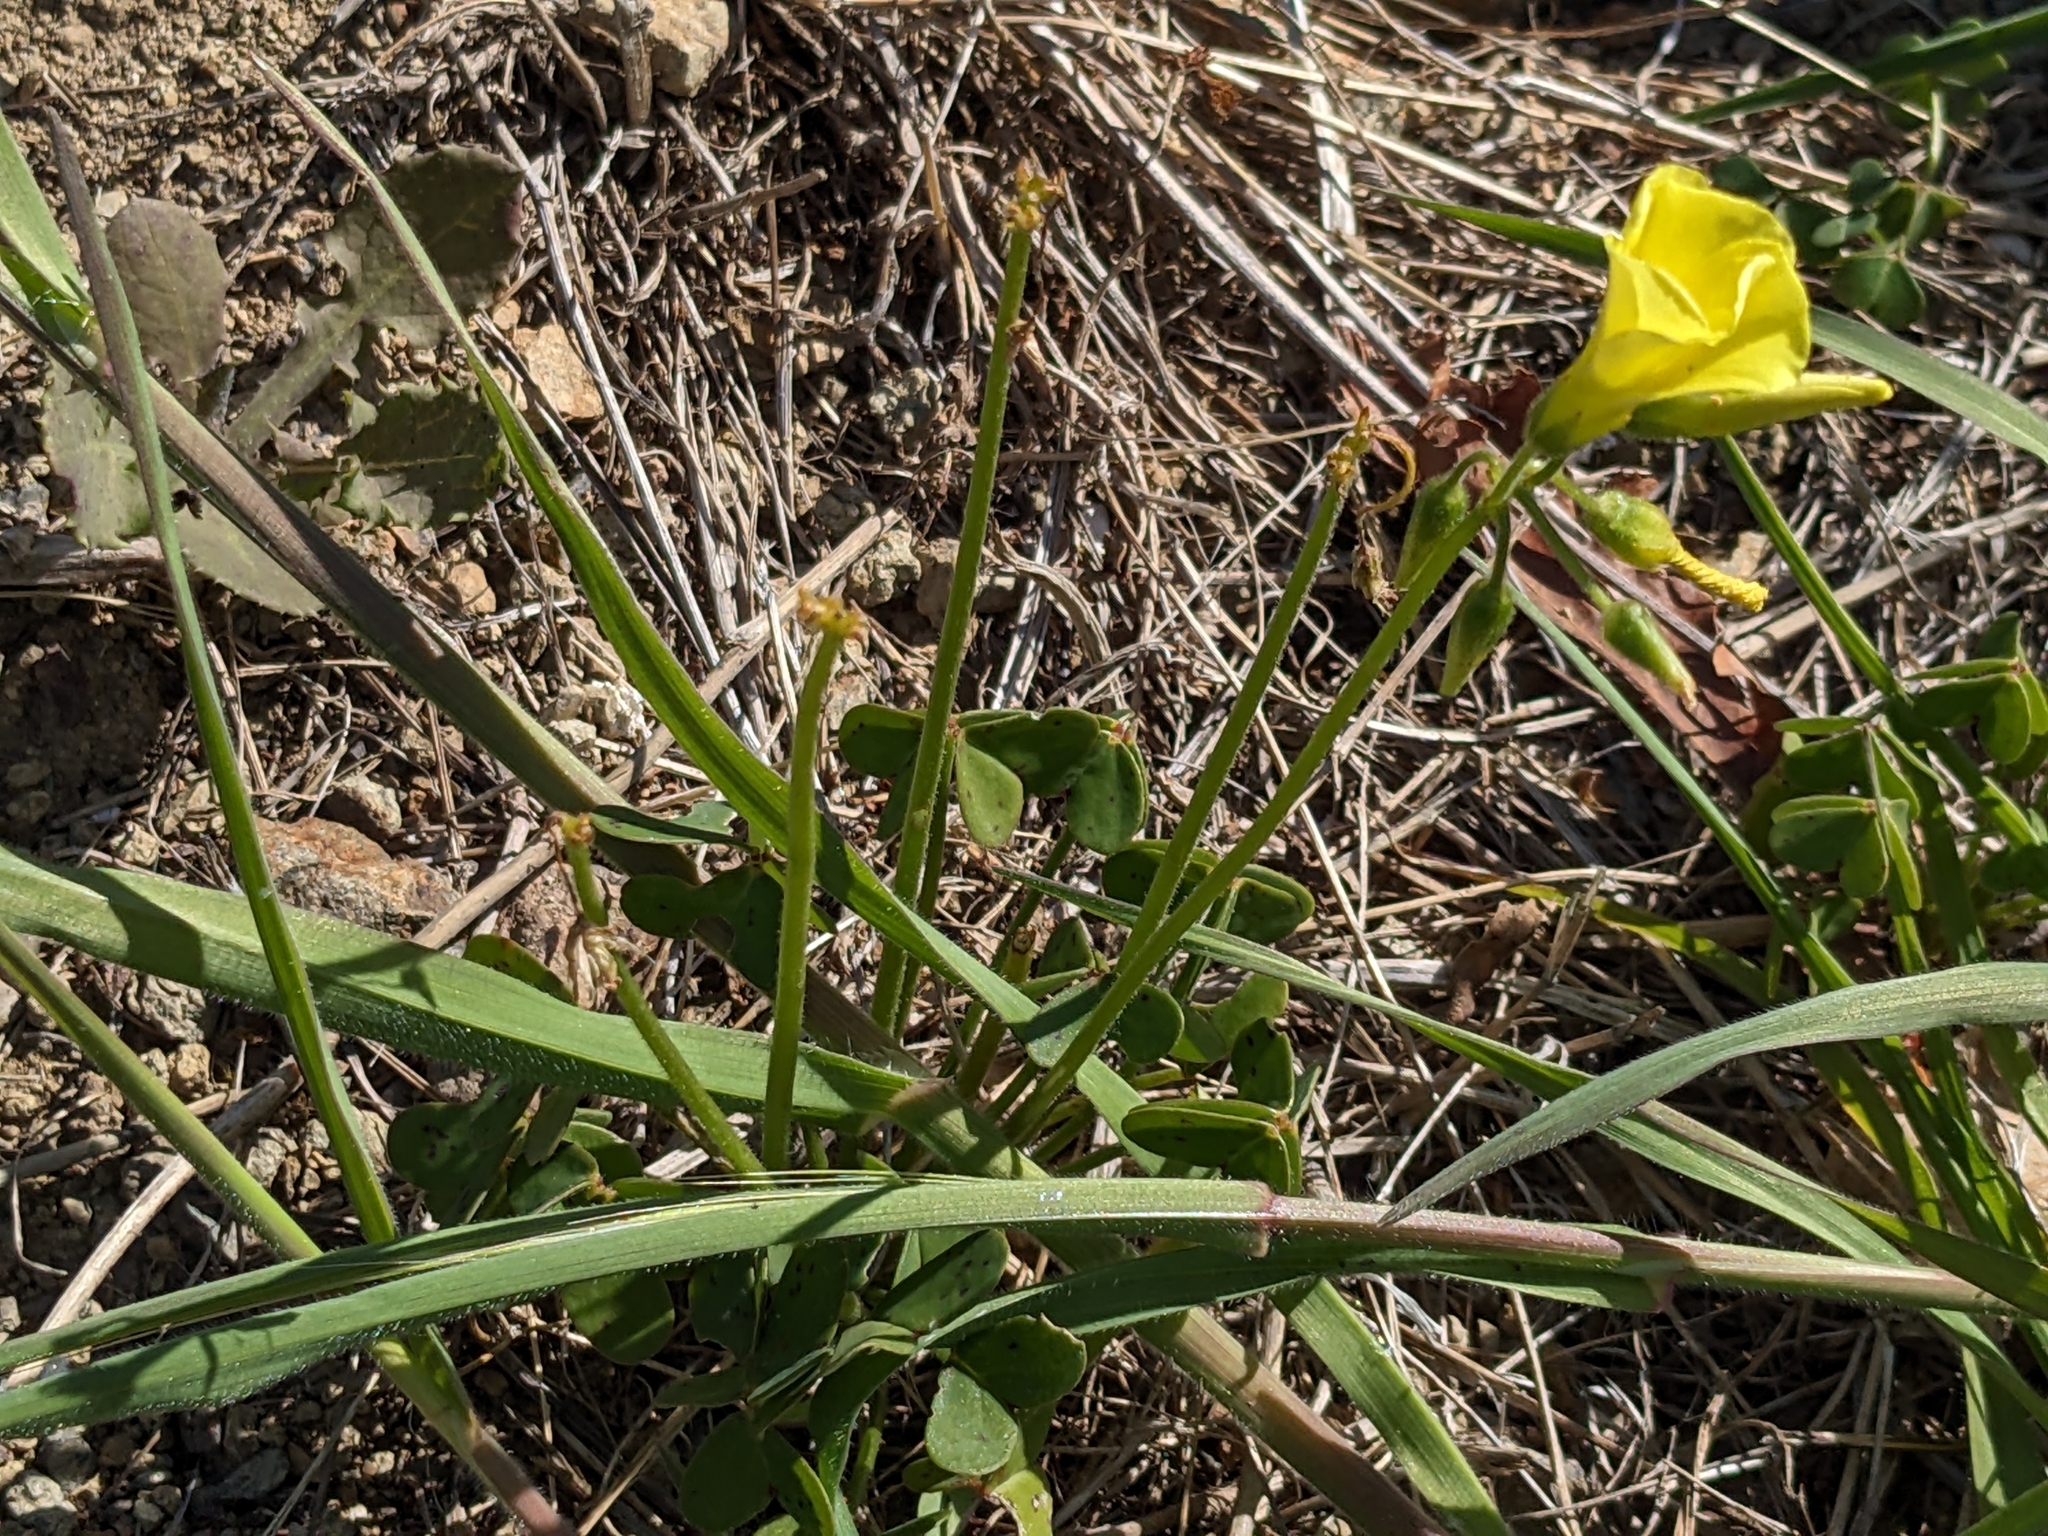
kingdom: Plantae
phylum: Tracheophyta
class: Magnoliopsida
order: Oxalidales
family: Oxalidaceae
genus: Oxalis
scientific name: Oxalis pes-caprae
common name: Bermuda-buttercup
